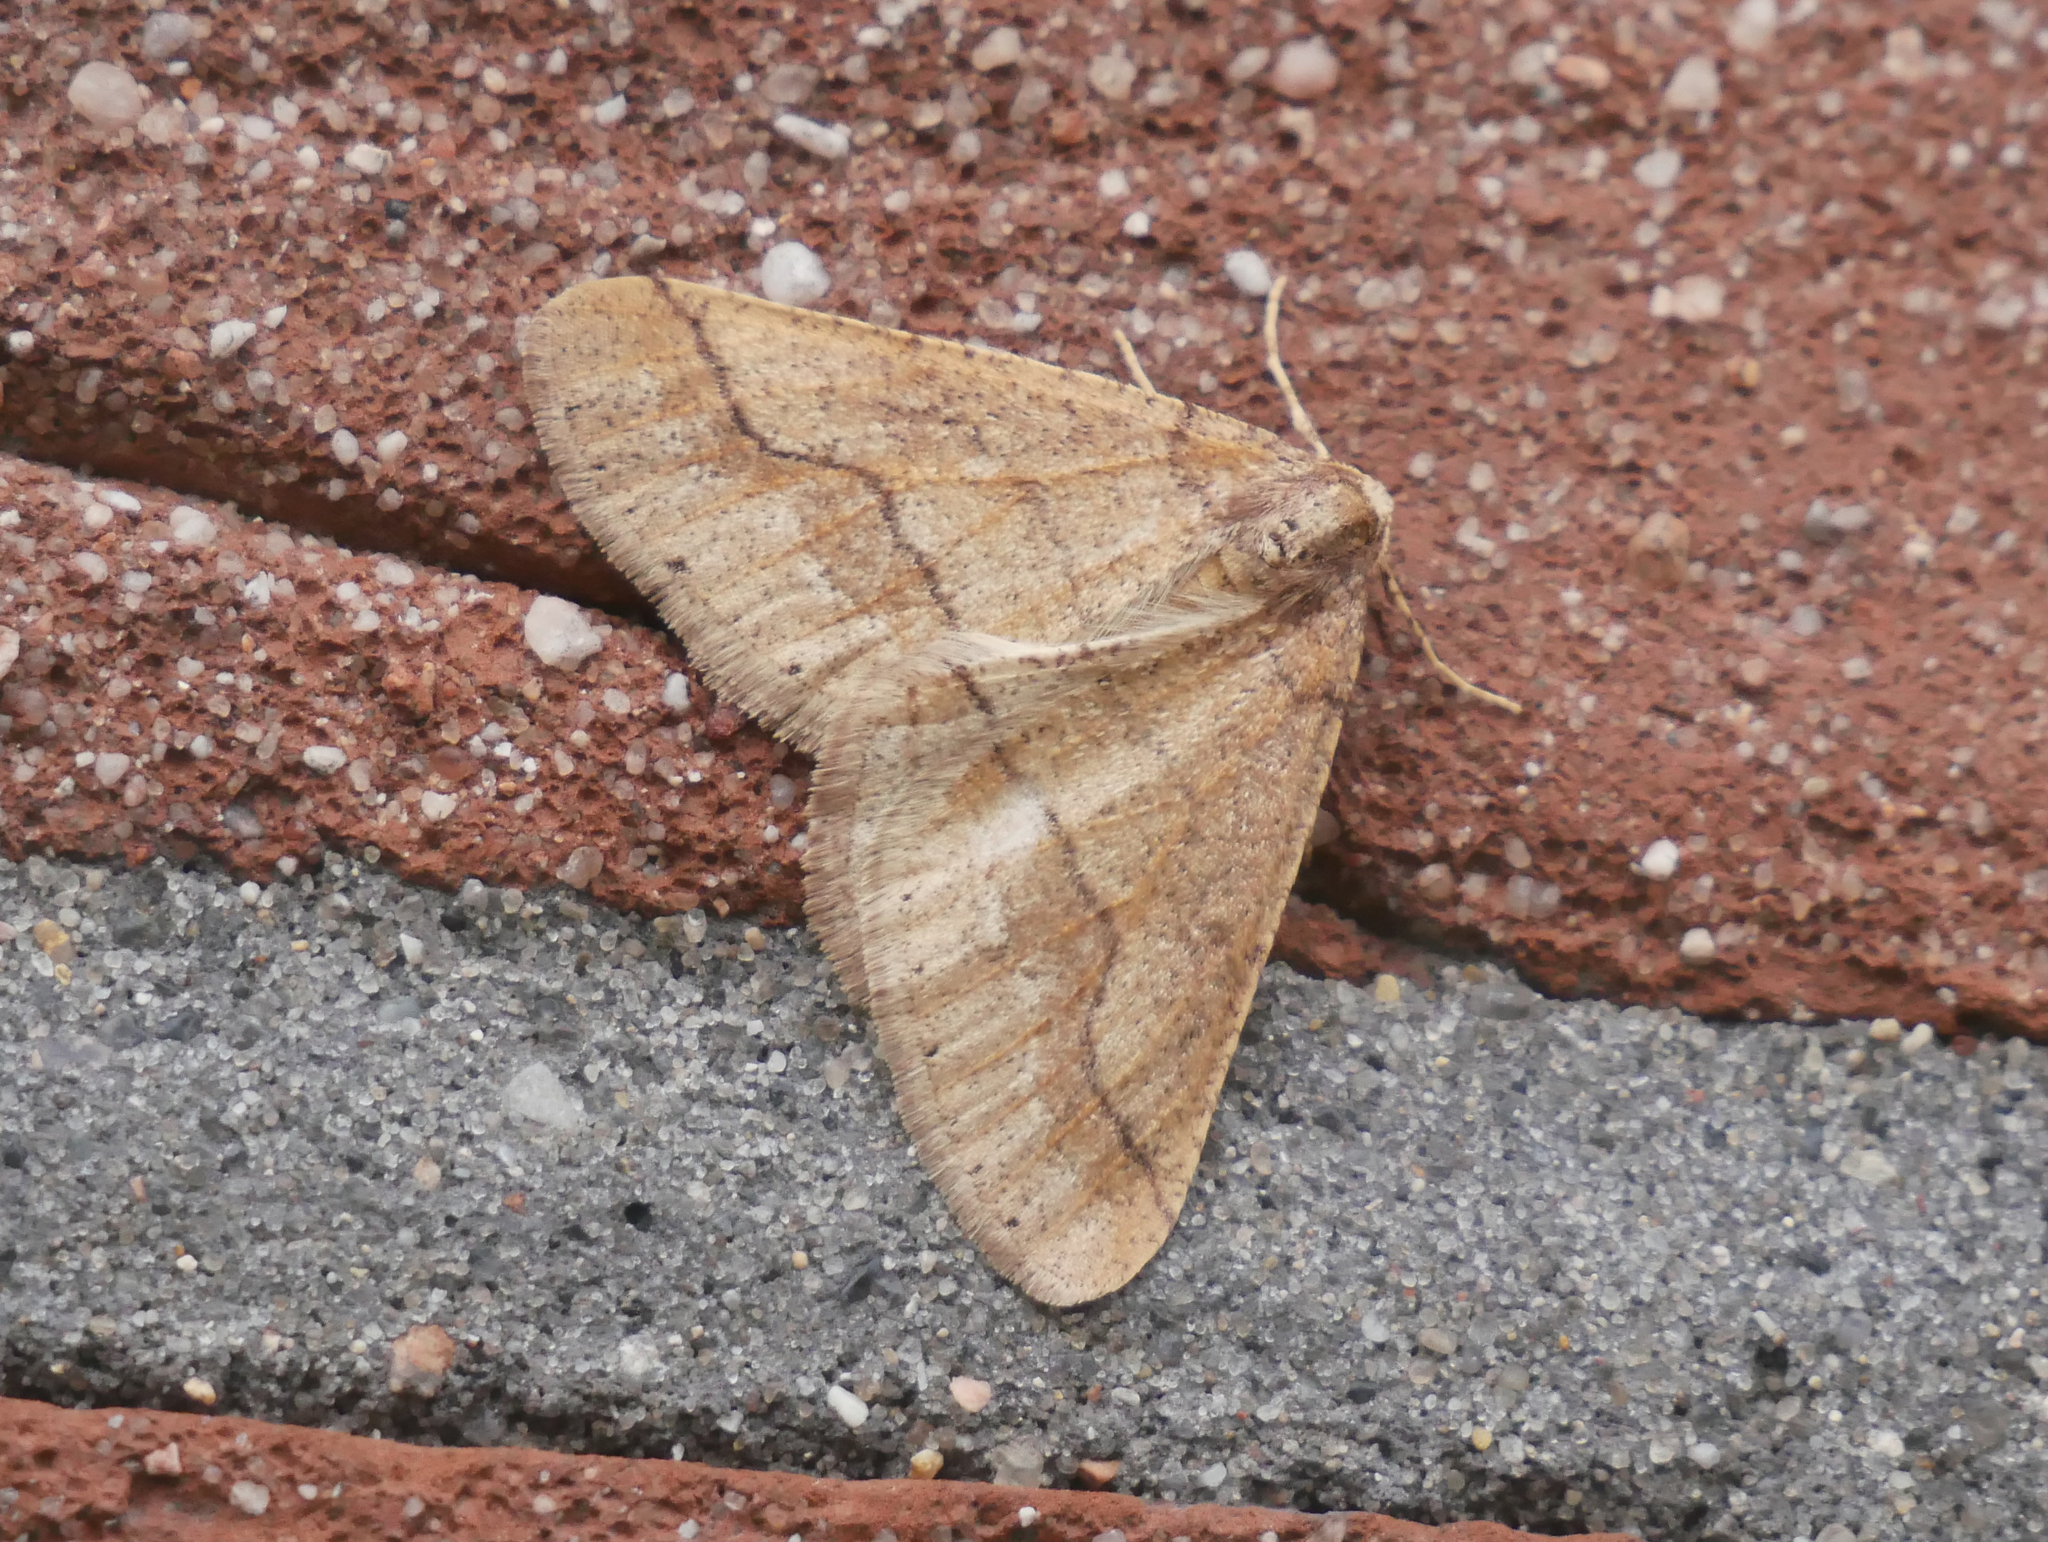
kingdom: Animalia
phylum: Arthropoda
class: Insecta
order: Lepidoptera
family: Geometridae
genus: Agriopis
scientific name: Agriopis marginaria
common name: Dotted border
